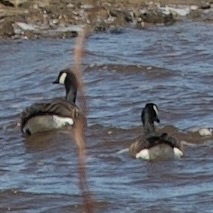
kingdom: Animalia
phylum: Chordata
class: Aves
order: Anseriformes
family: Anatidae
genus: Branta
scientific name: Branta canadensis
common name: Canada goose
